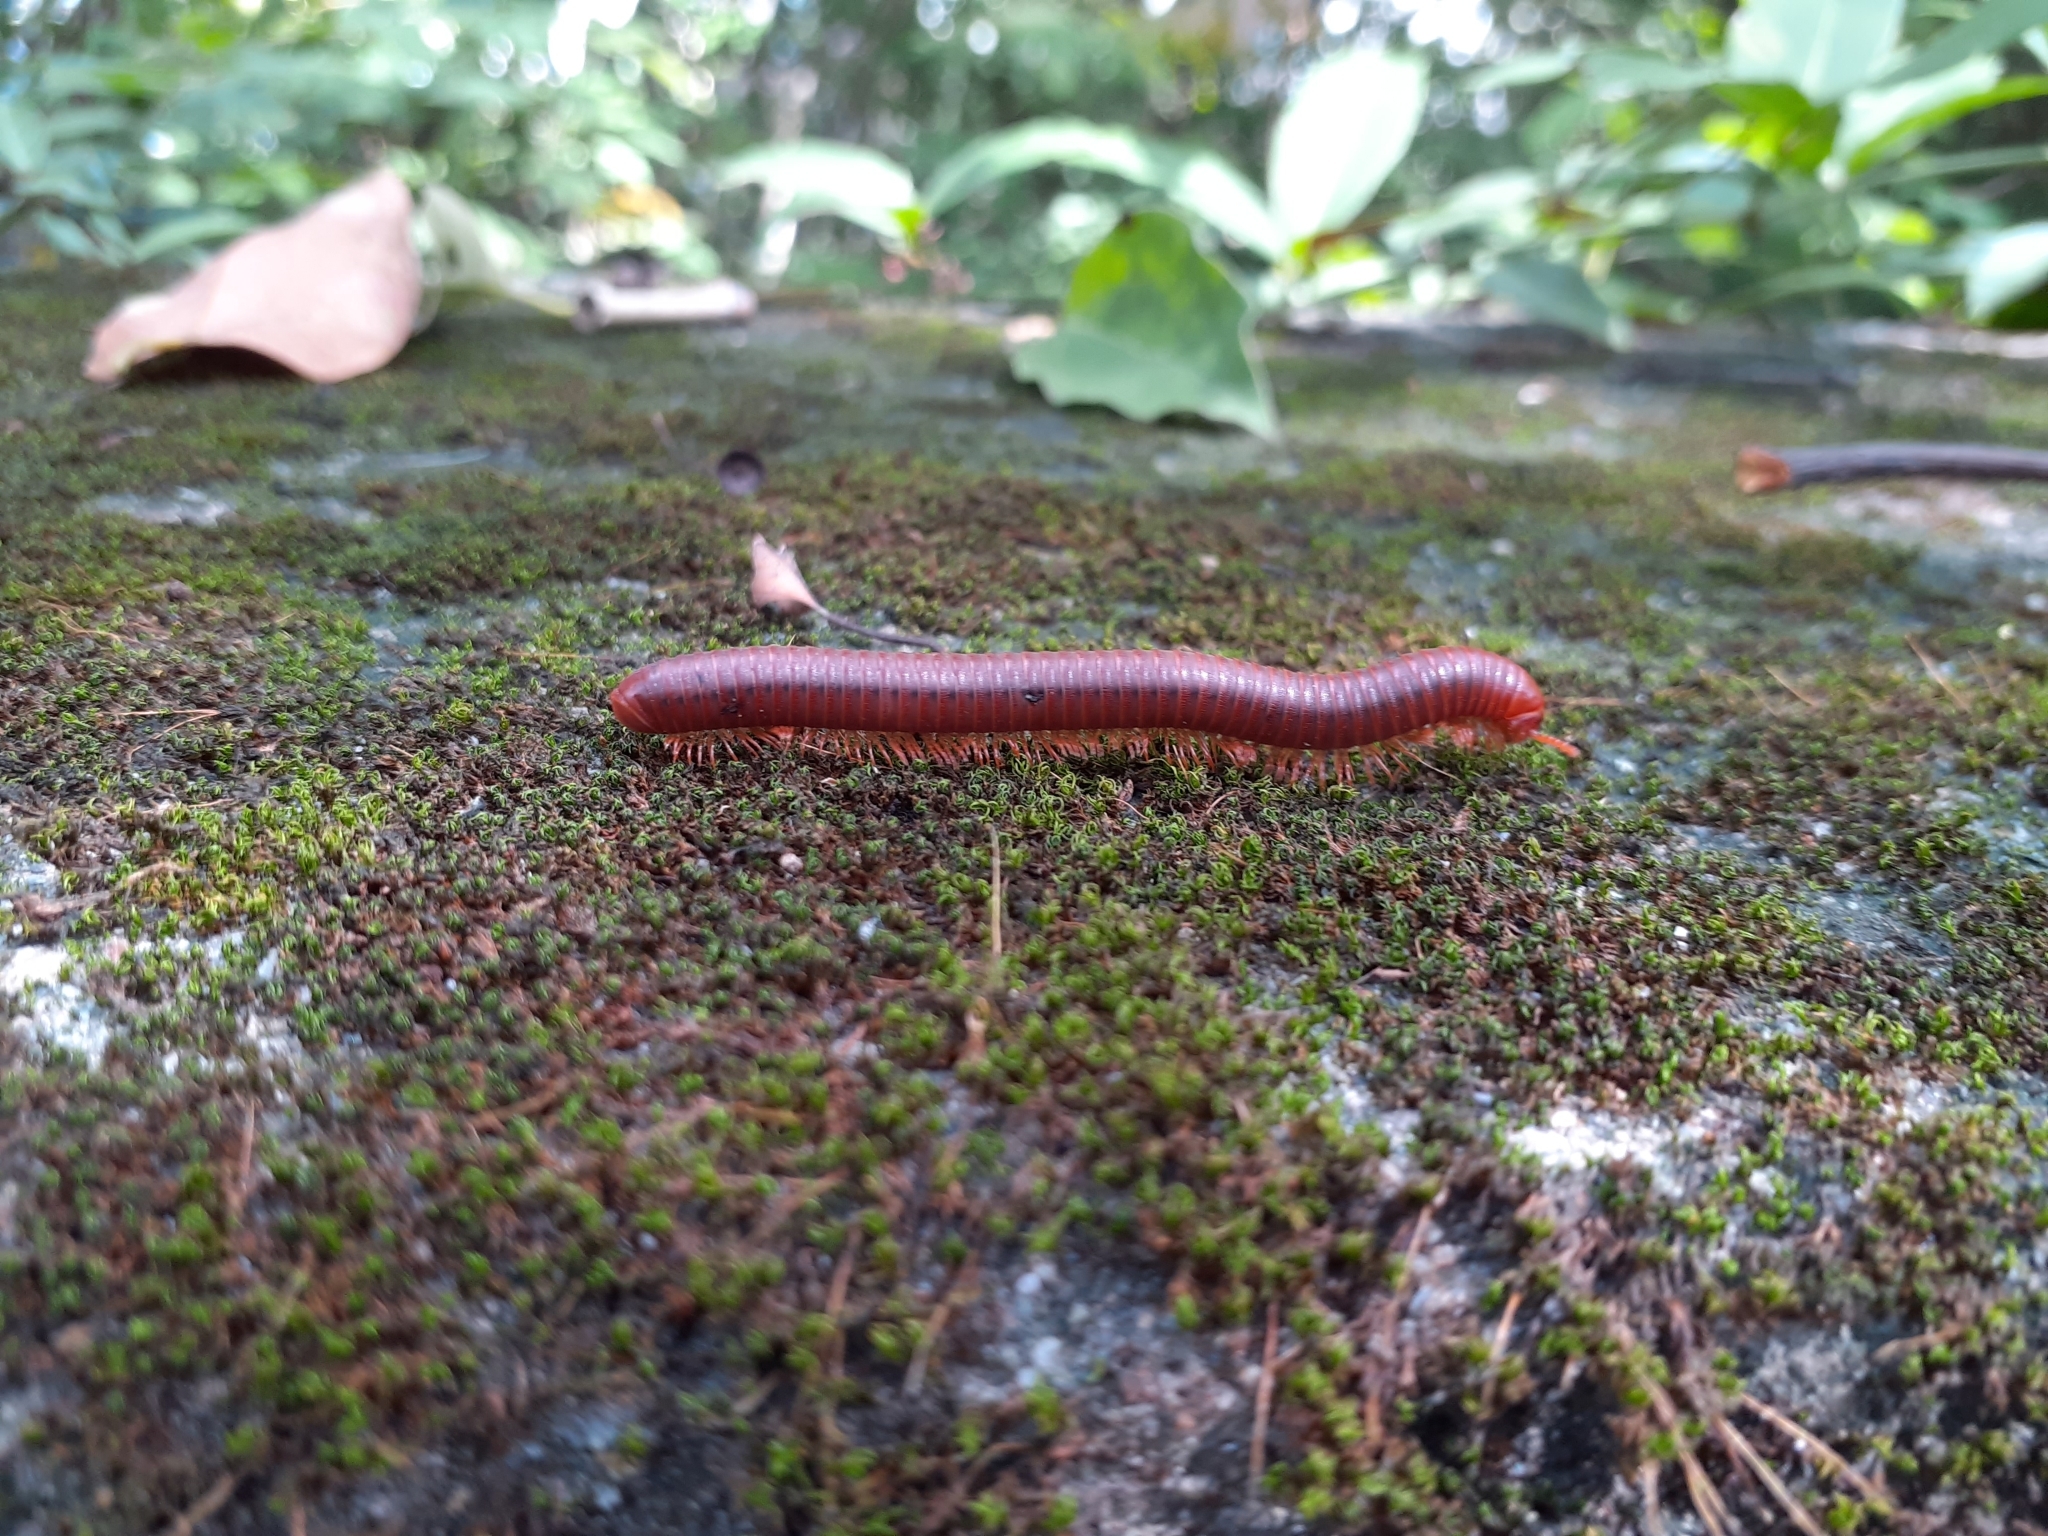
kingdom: Animalia
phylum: Arthropoda
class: Diplopoda
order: Spirobolida
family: Pachybolidae
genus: Trigoniulus
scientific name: Trigoniulus corallinus
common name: Millipede
